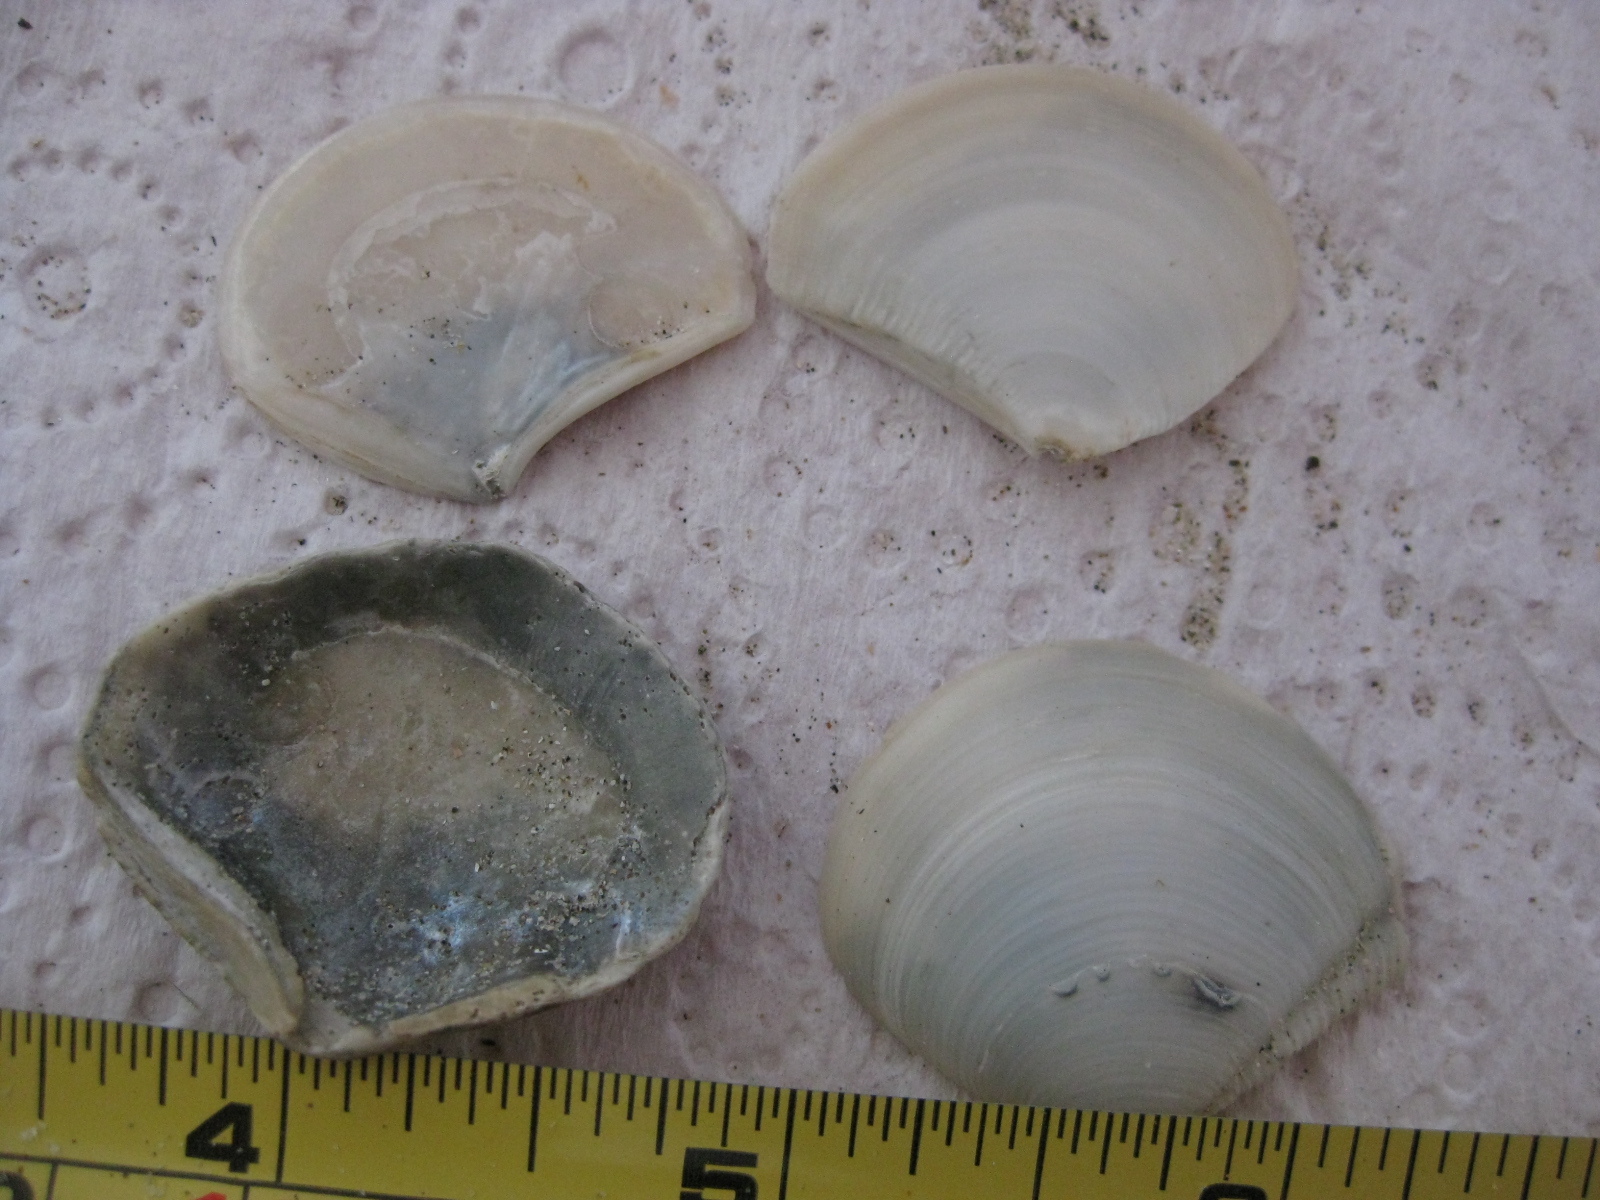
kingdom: Animalia
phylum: Mollusca
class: Bivalvia
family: Myochamidae
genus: Myadora
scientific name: Myadora striata
